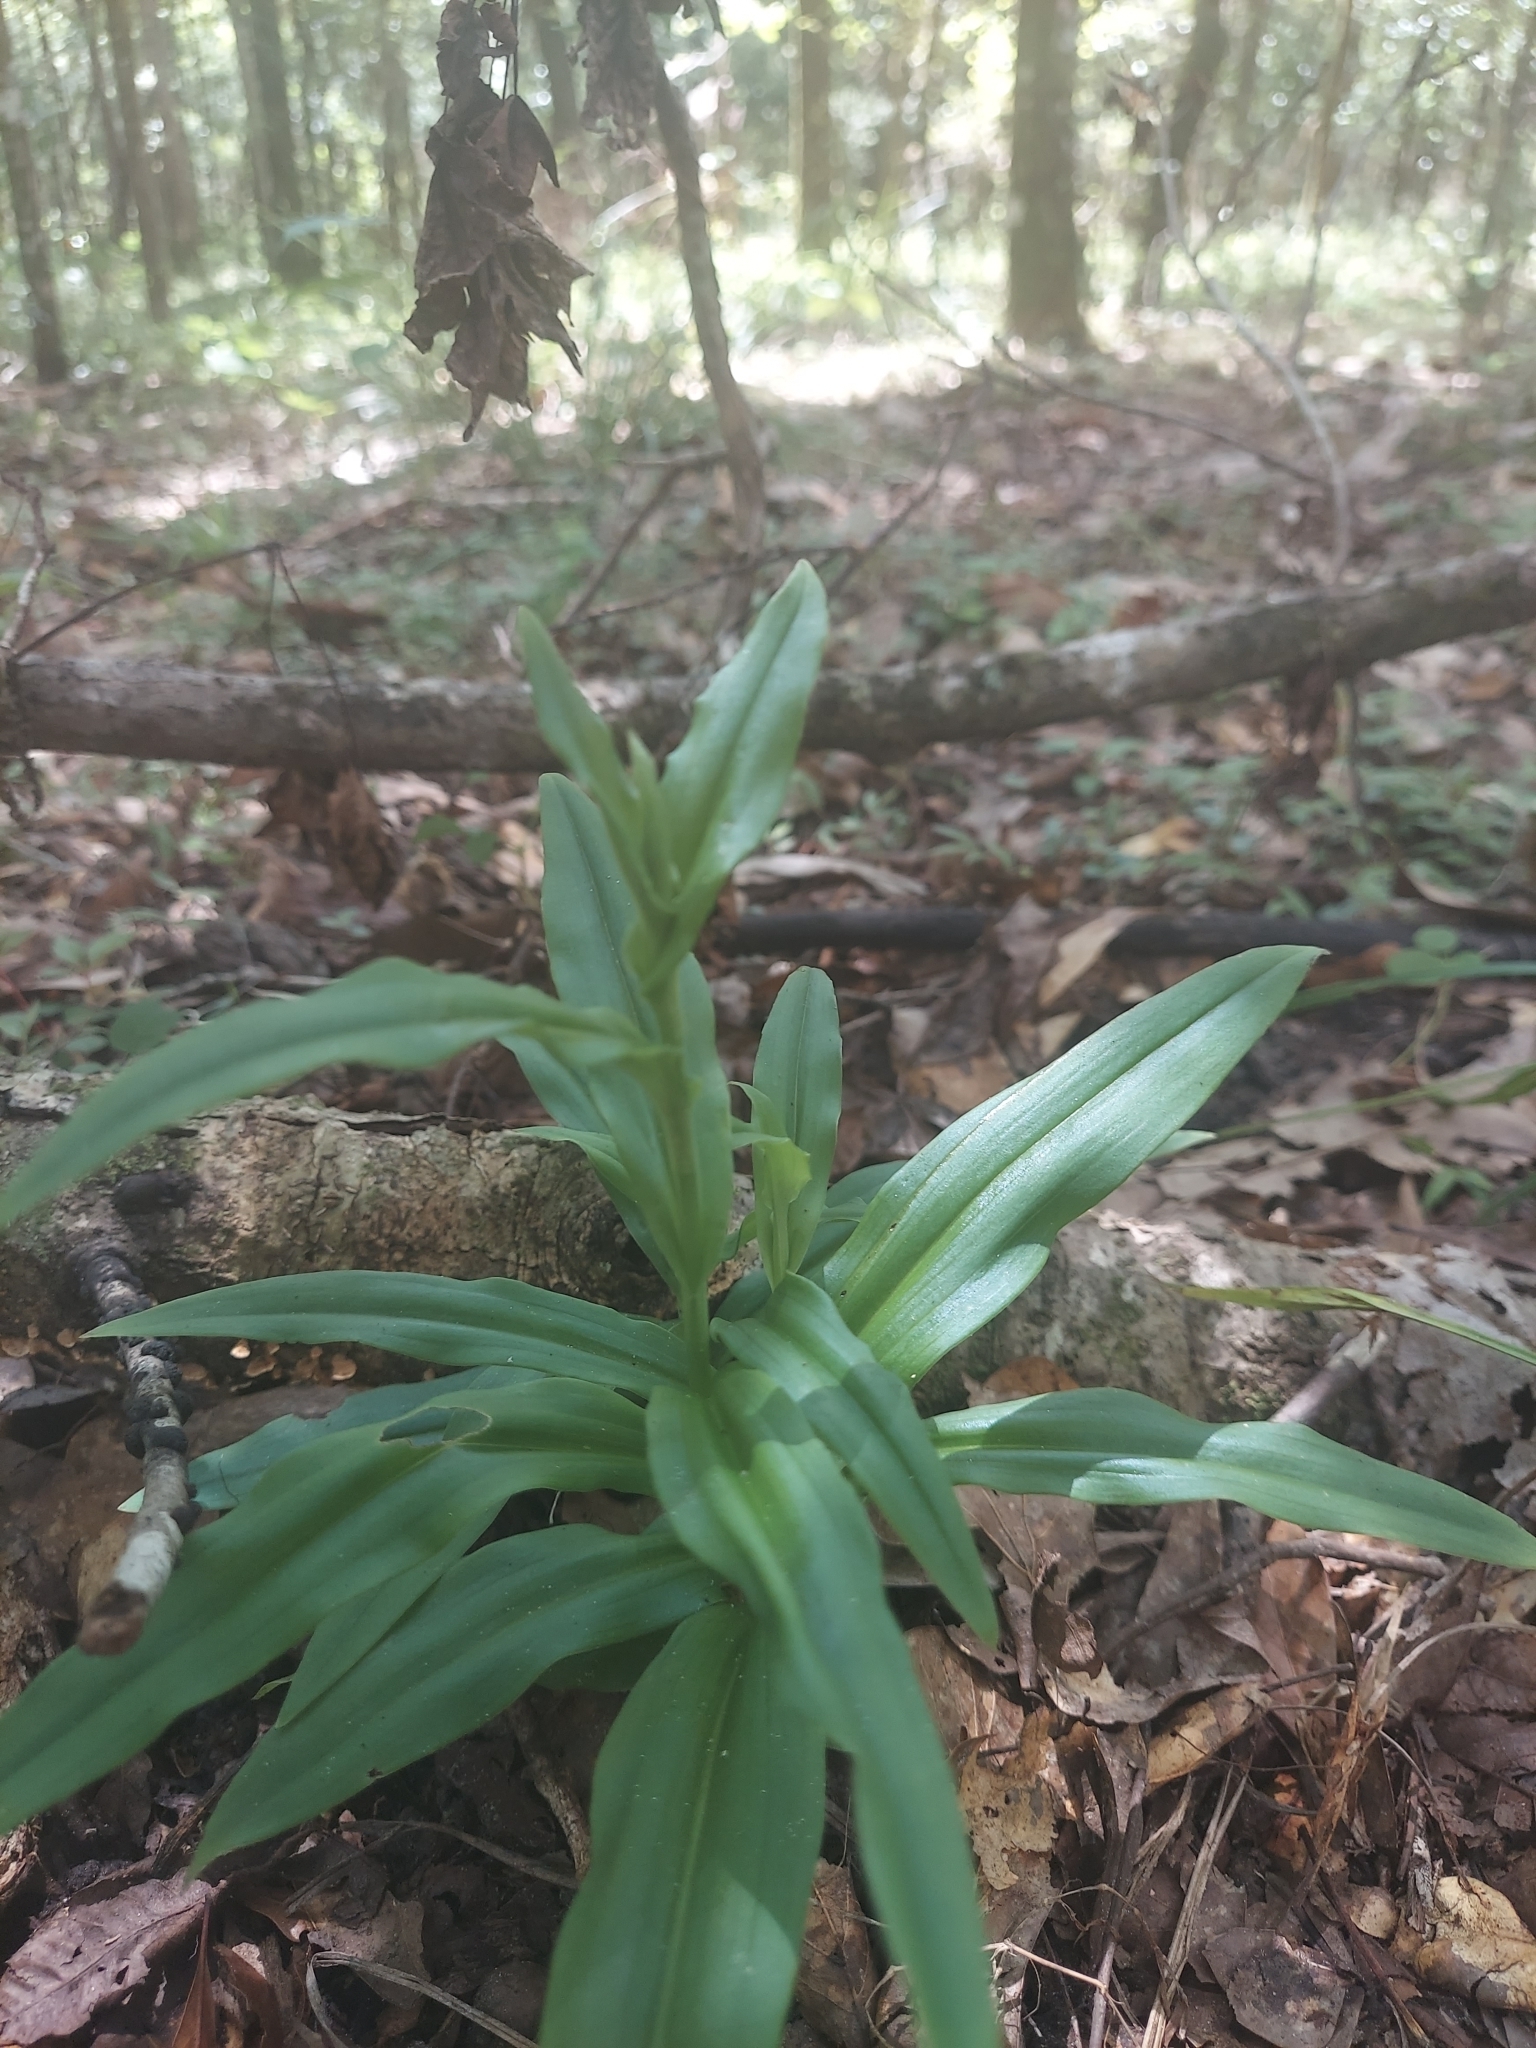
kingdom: Plantae
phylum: Tracheophyta
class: Liliopsida
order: Asparagales
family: Orchidaceae
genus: Habenaria
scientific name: Habenaria floribunda
